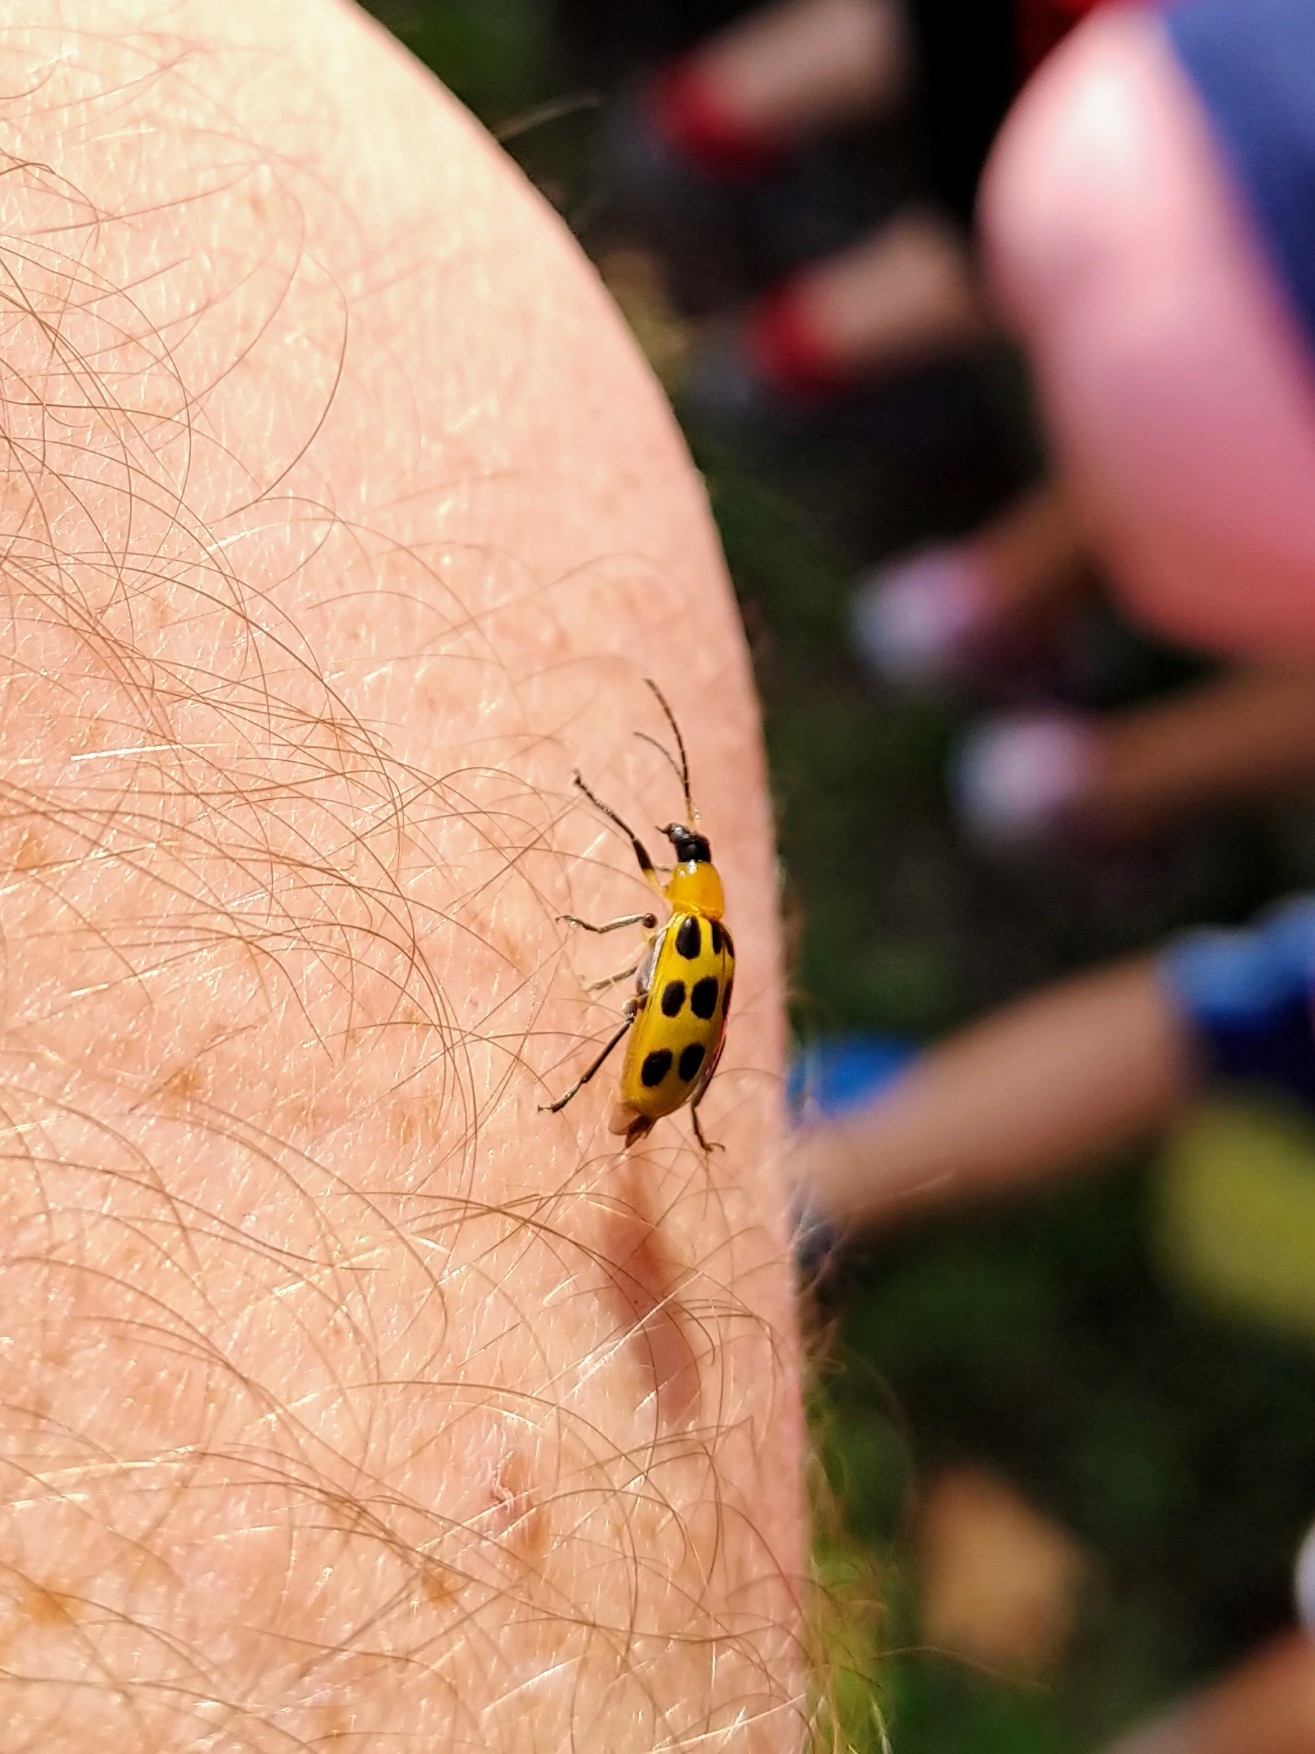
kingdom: Animalia
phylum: Arthropoda
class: Insecta
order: Coleoptera
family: Chrysomelidae
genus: Diabrotica
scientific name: Diabrotica undecimpunctata
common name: Spotted cucumber beetle
